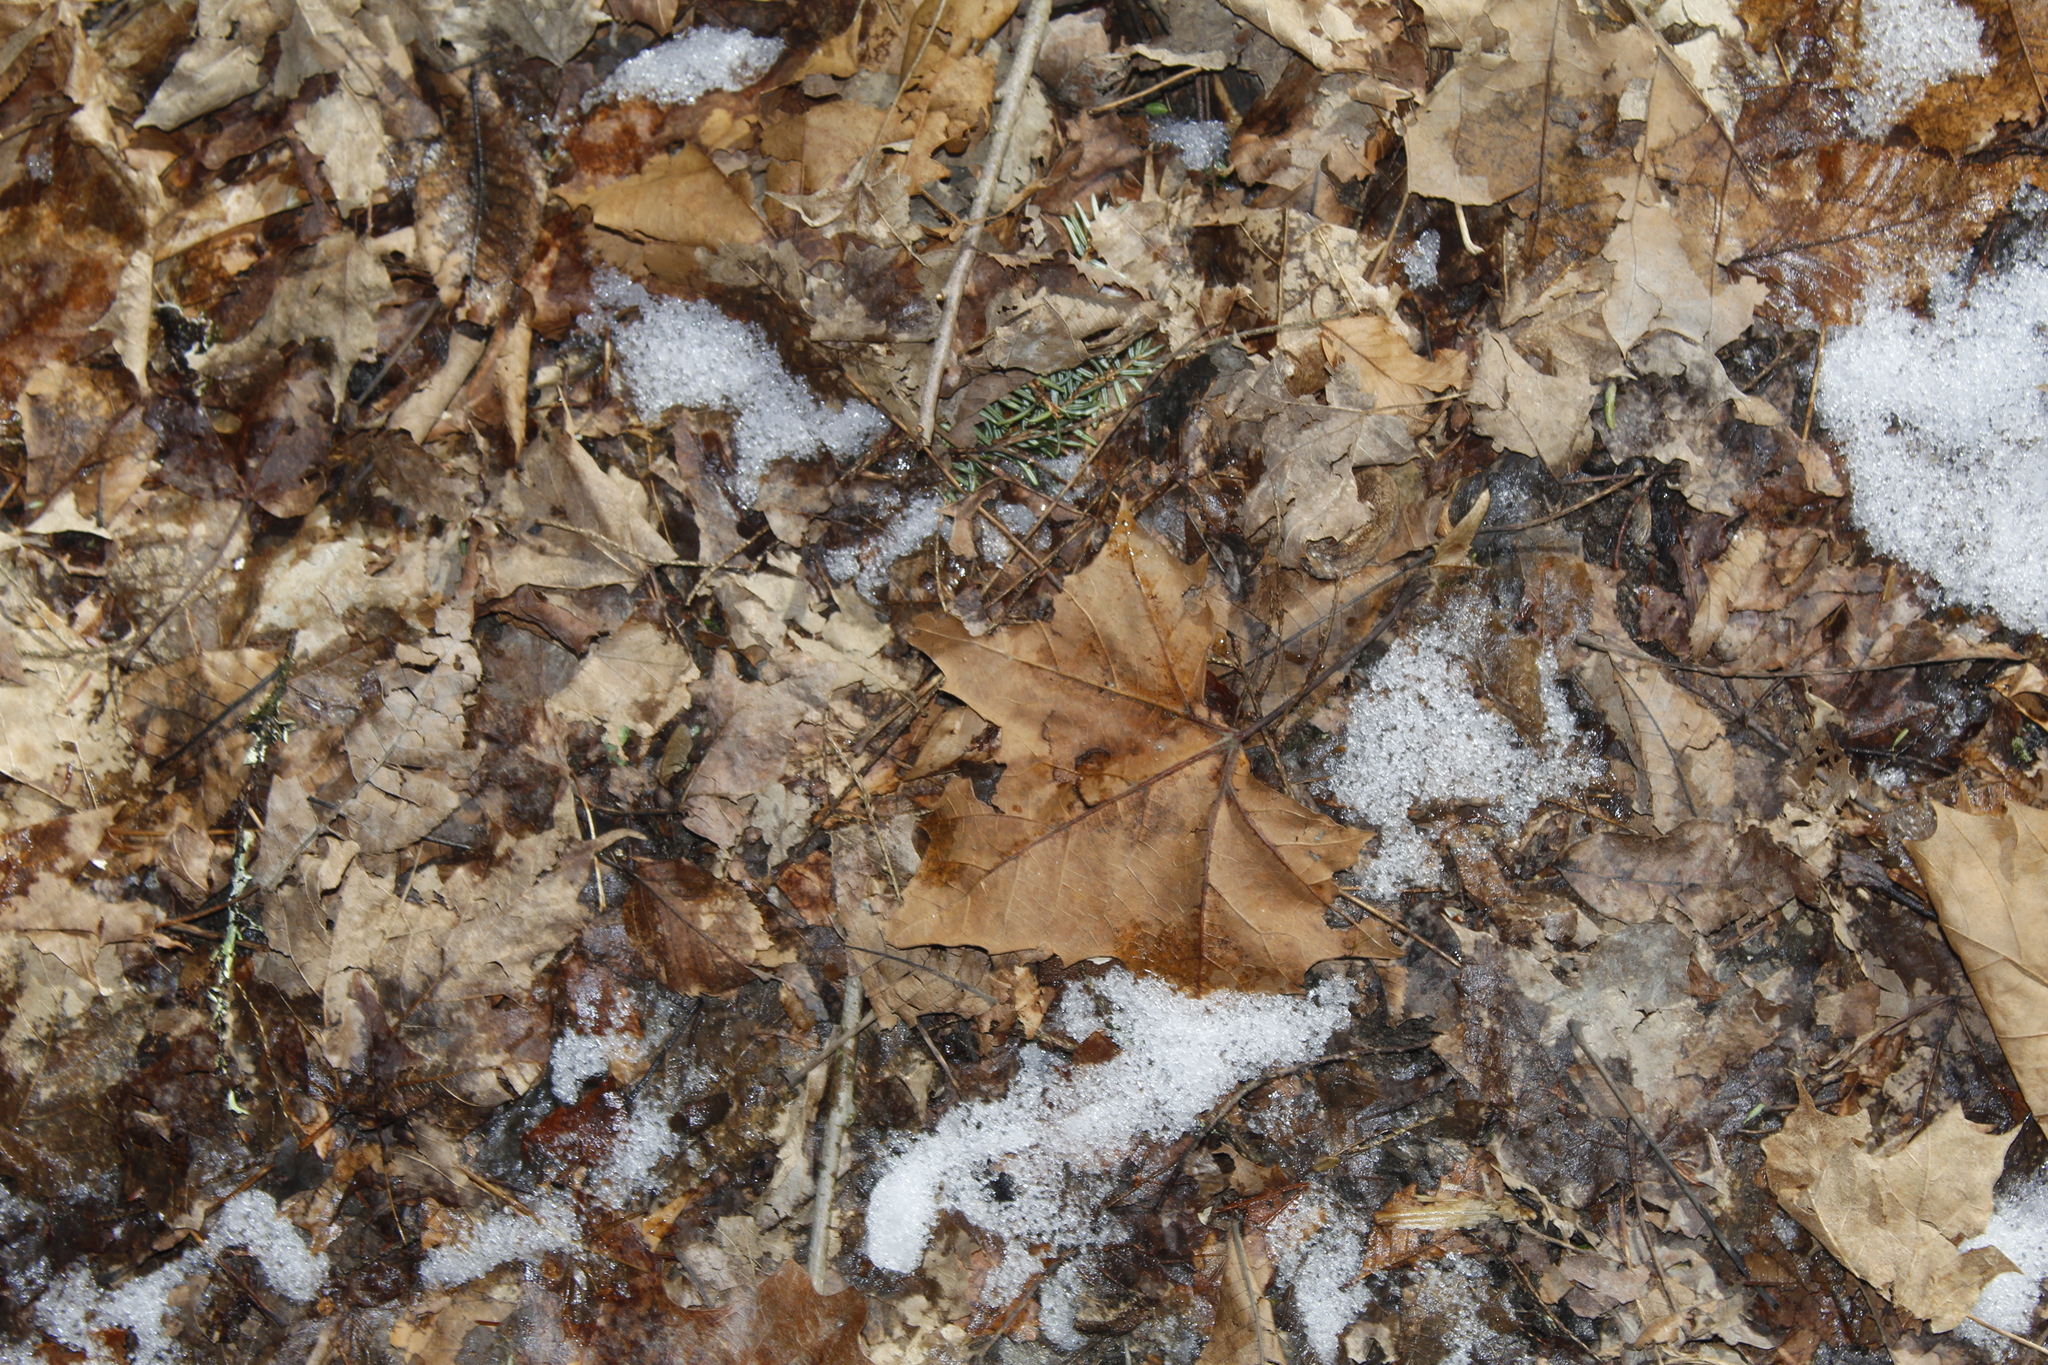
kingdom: Plantae
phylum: Tracheophyta
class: Magnoliopsida
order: Proteales
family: Platanaceae
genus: Platanus
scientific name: Platanus occidentalis
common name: American sycamore
